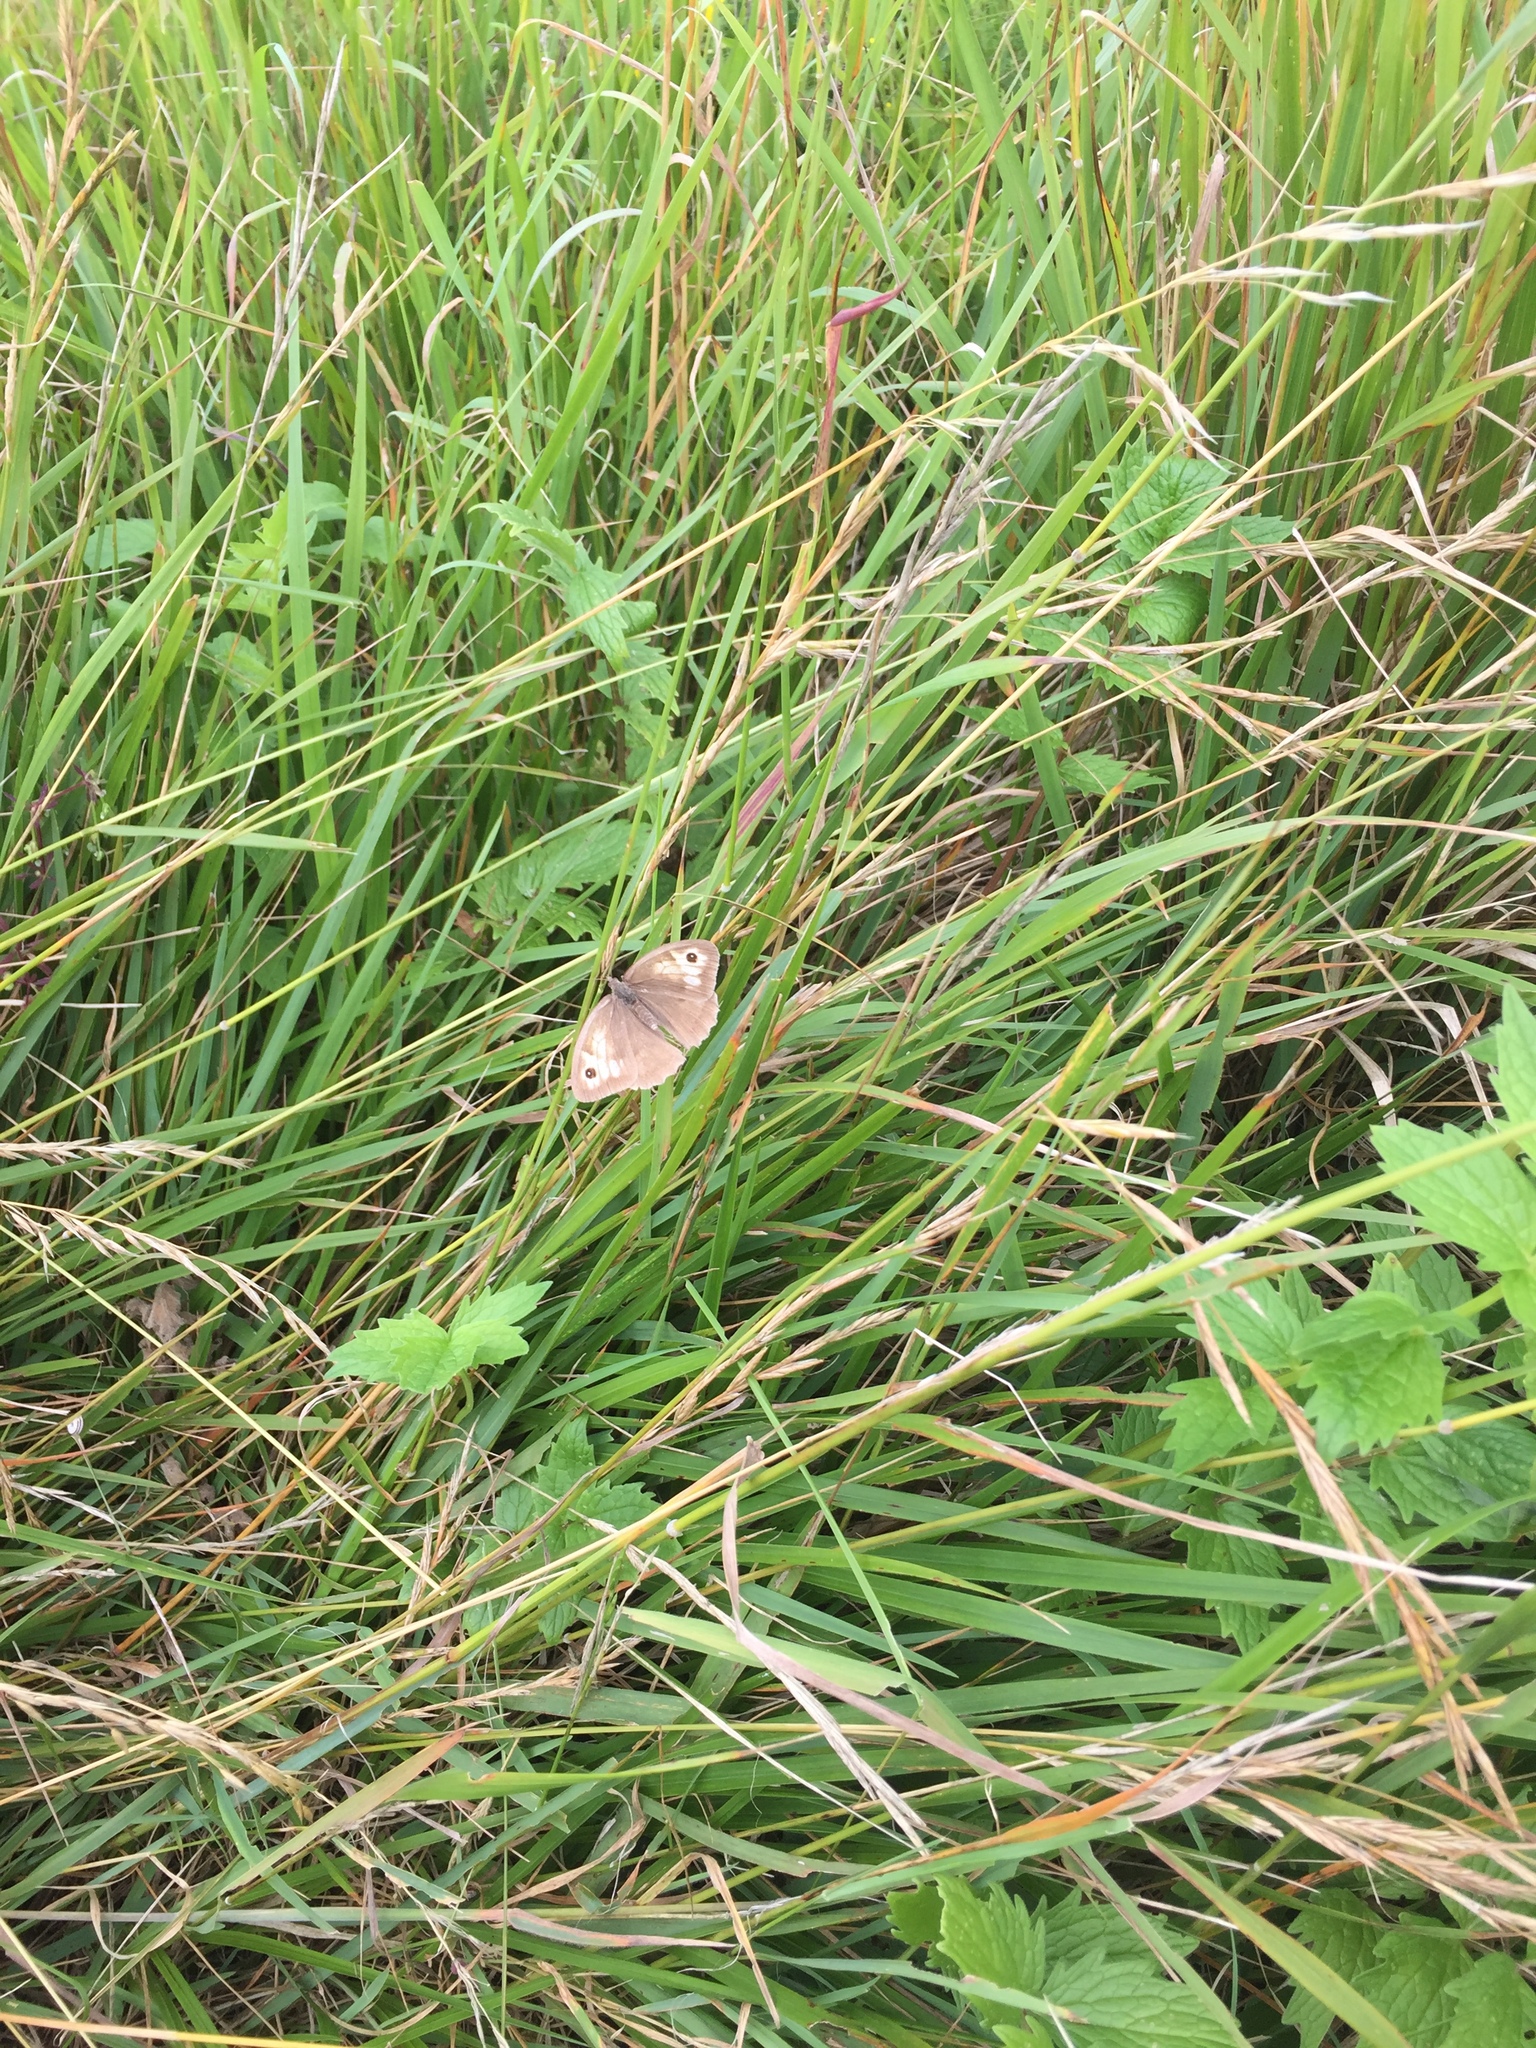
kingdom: Animalia
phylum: Arthropoda
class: Insecta
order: Lepidoptera
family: Nymphalidae
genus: Maniola
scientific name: Maniola jurtina
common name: Meadow brown
